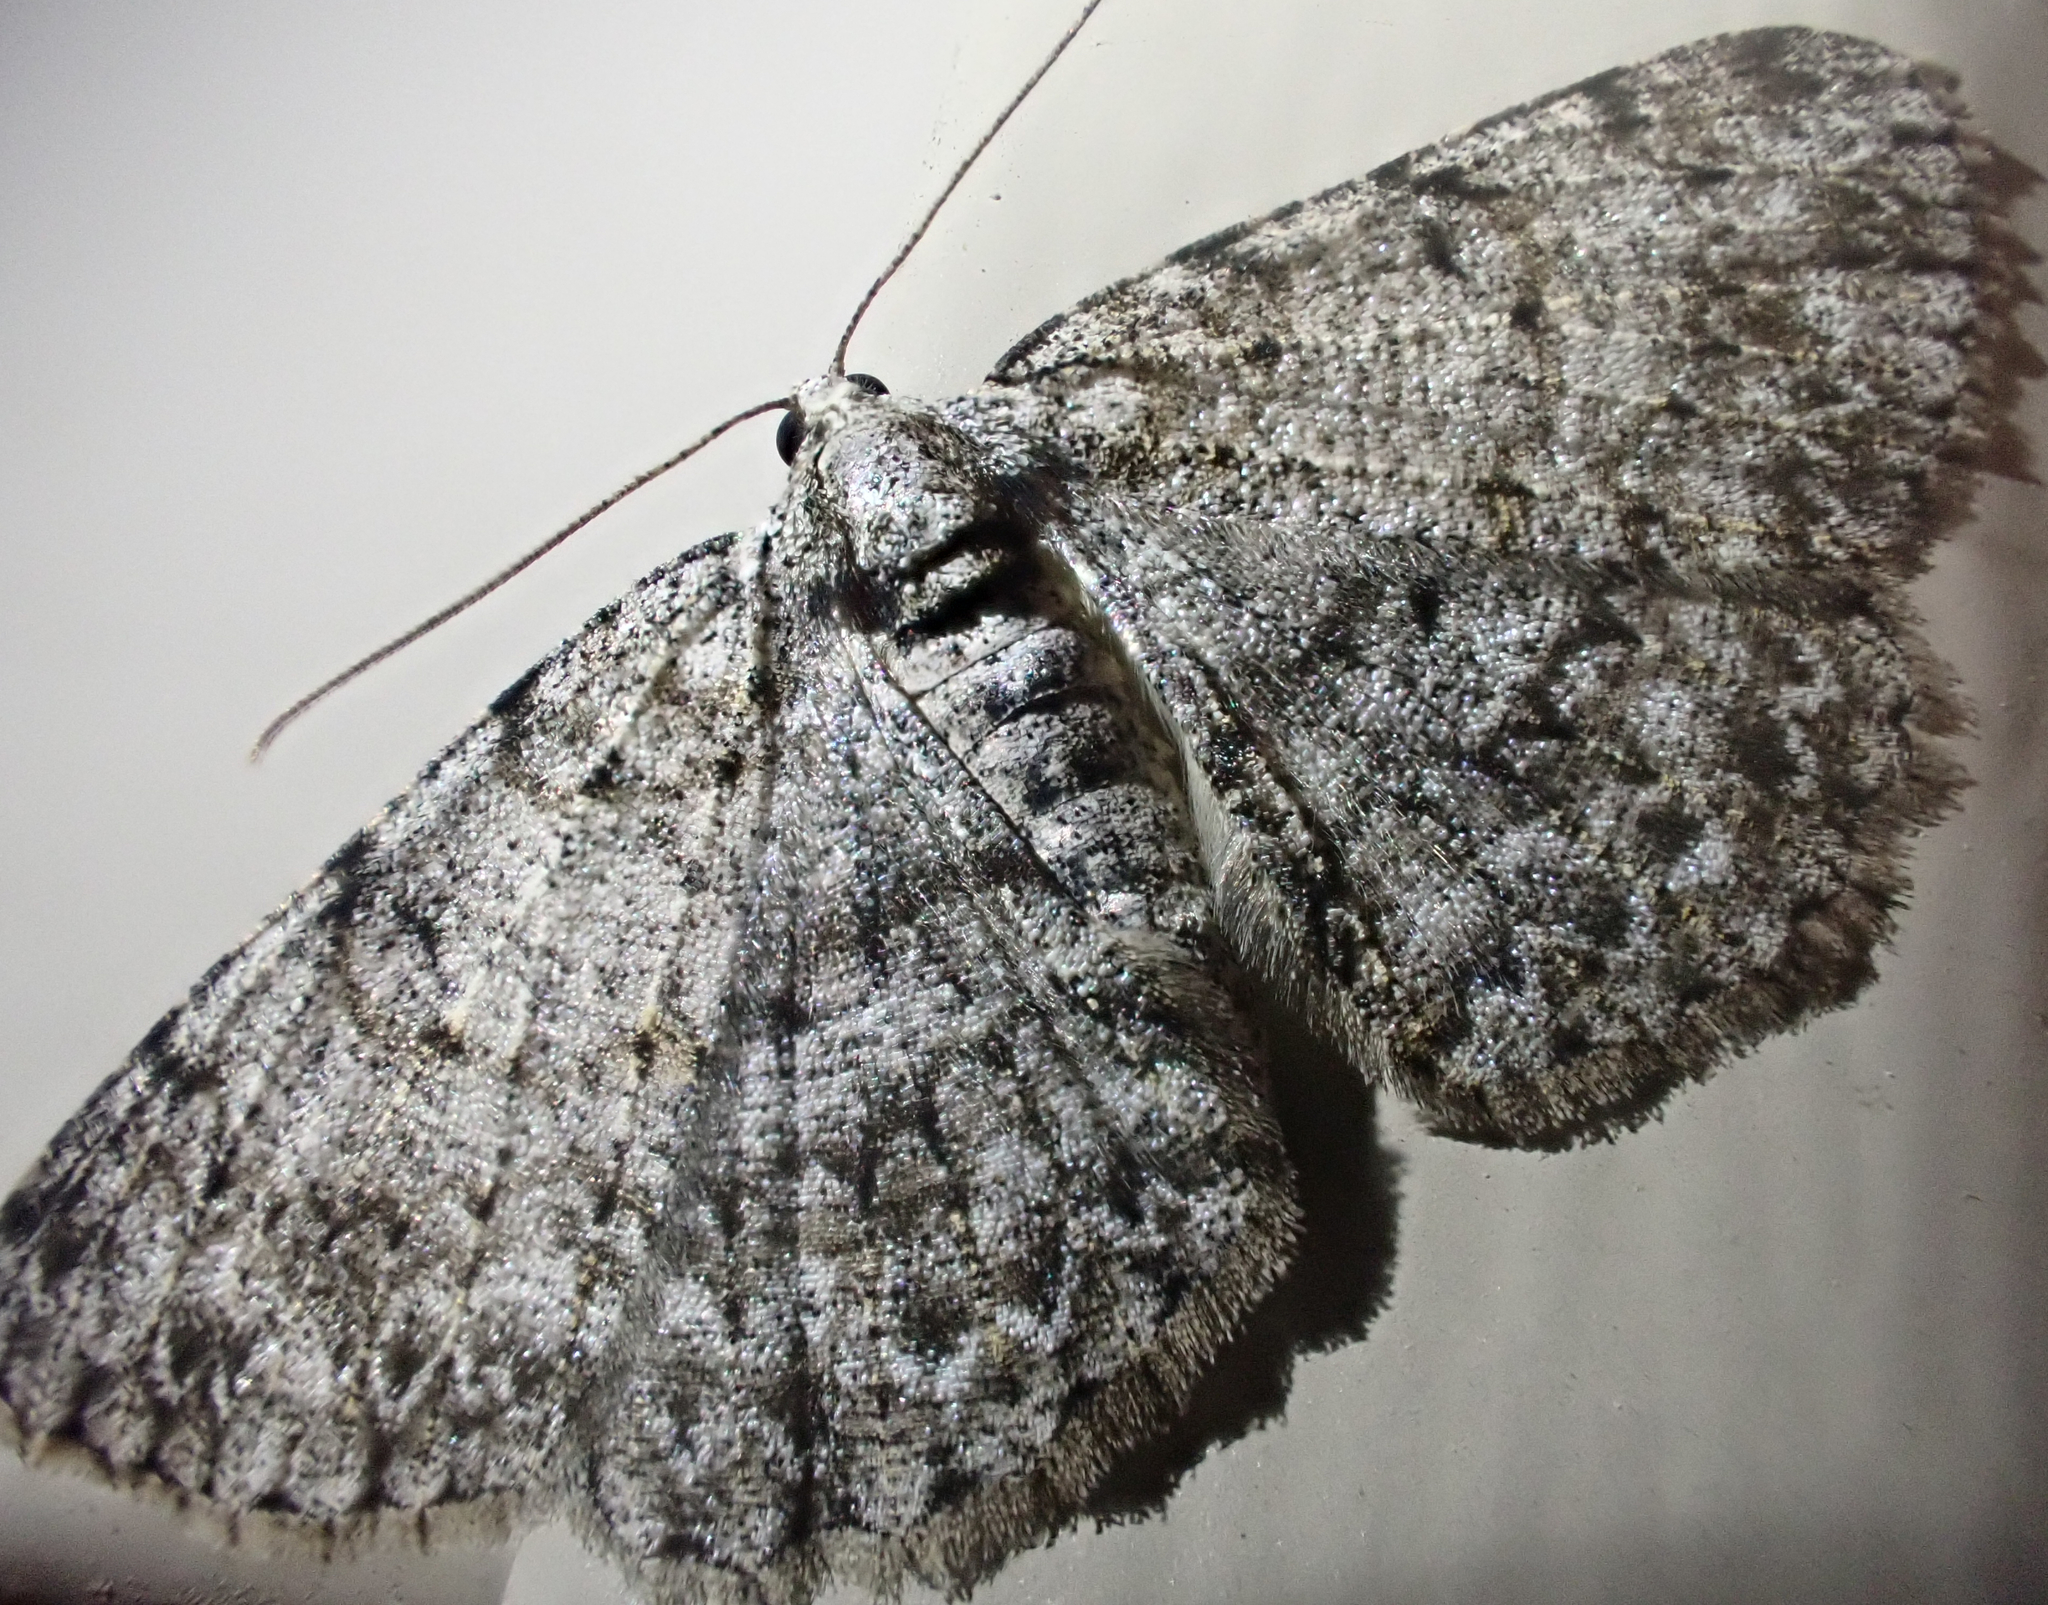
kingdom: Animalia
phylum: Arthropoda
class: Insecta
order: Lepidoptera
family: Geometridae
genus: Protoboarmia
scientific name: Protoboarmia porcelaria
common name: Porcelain gray
